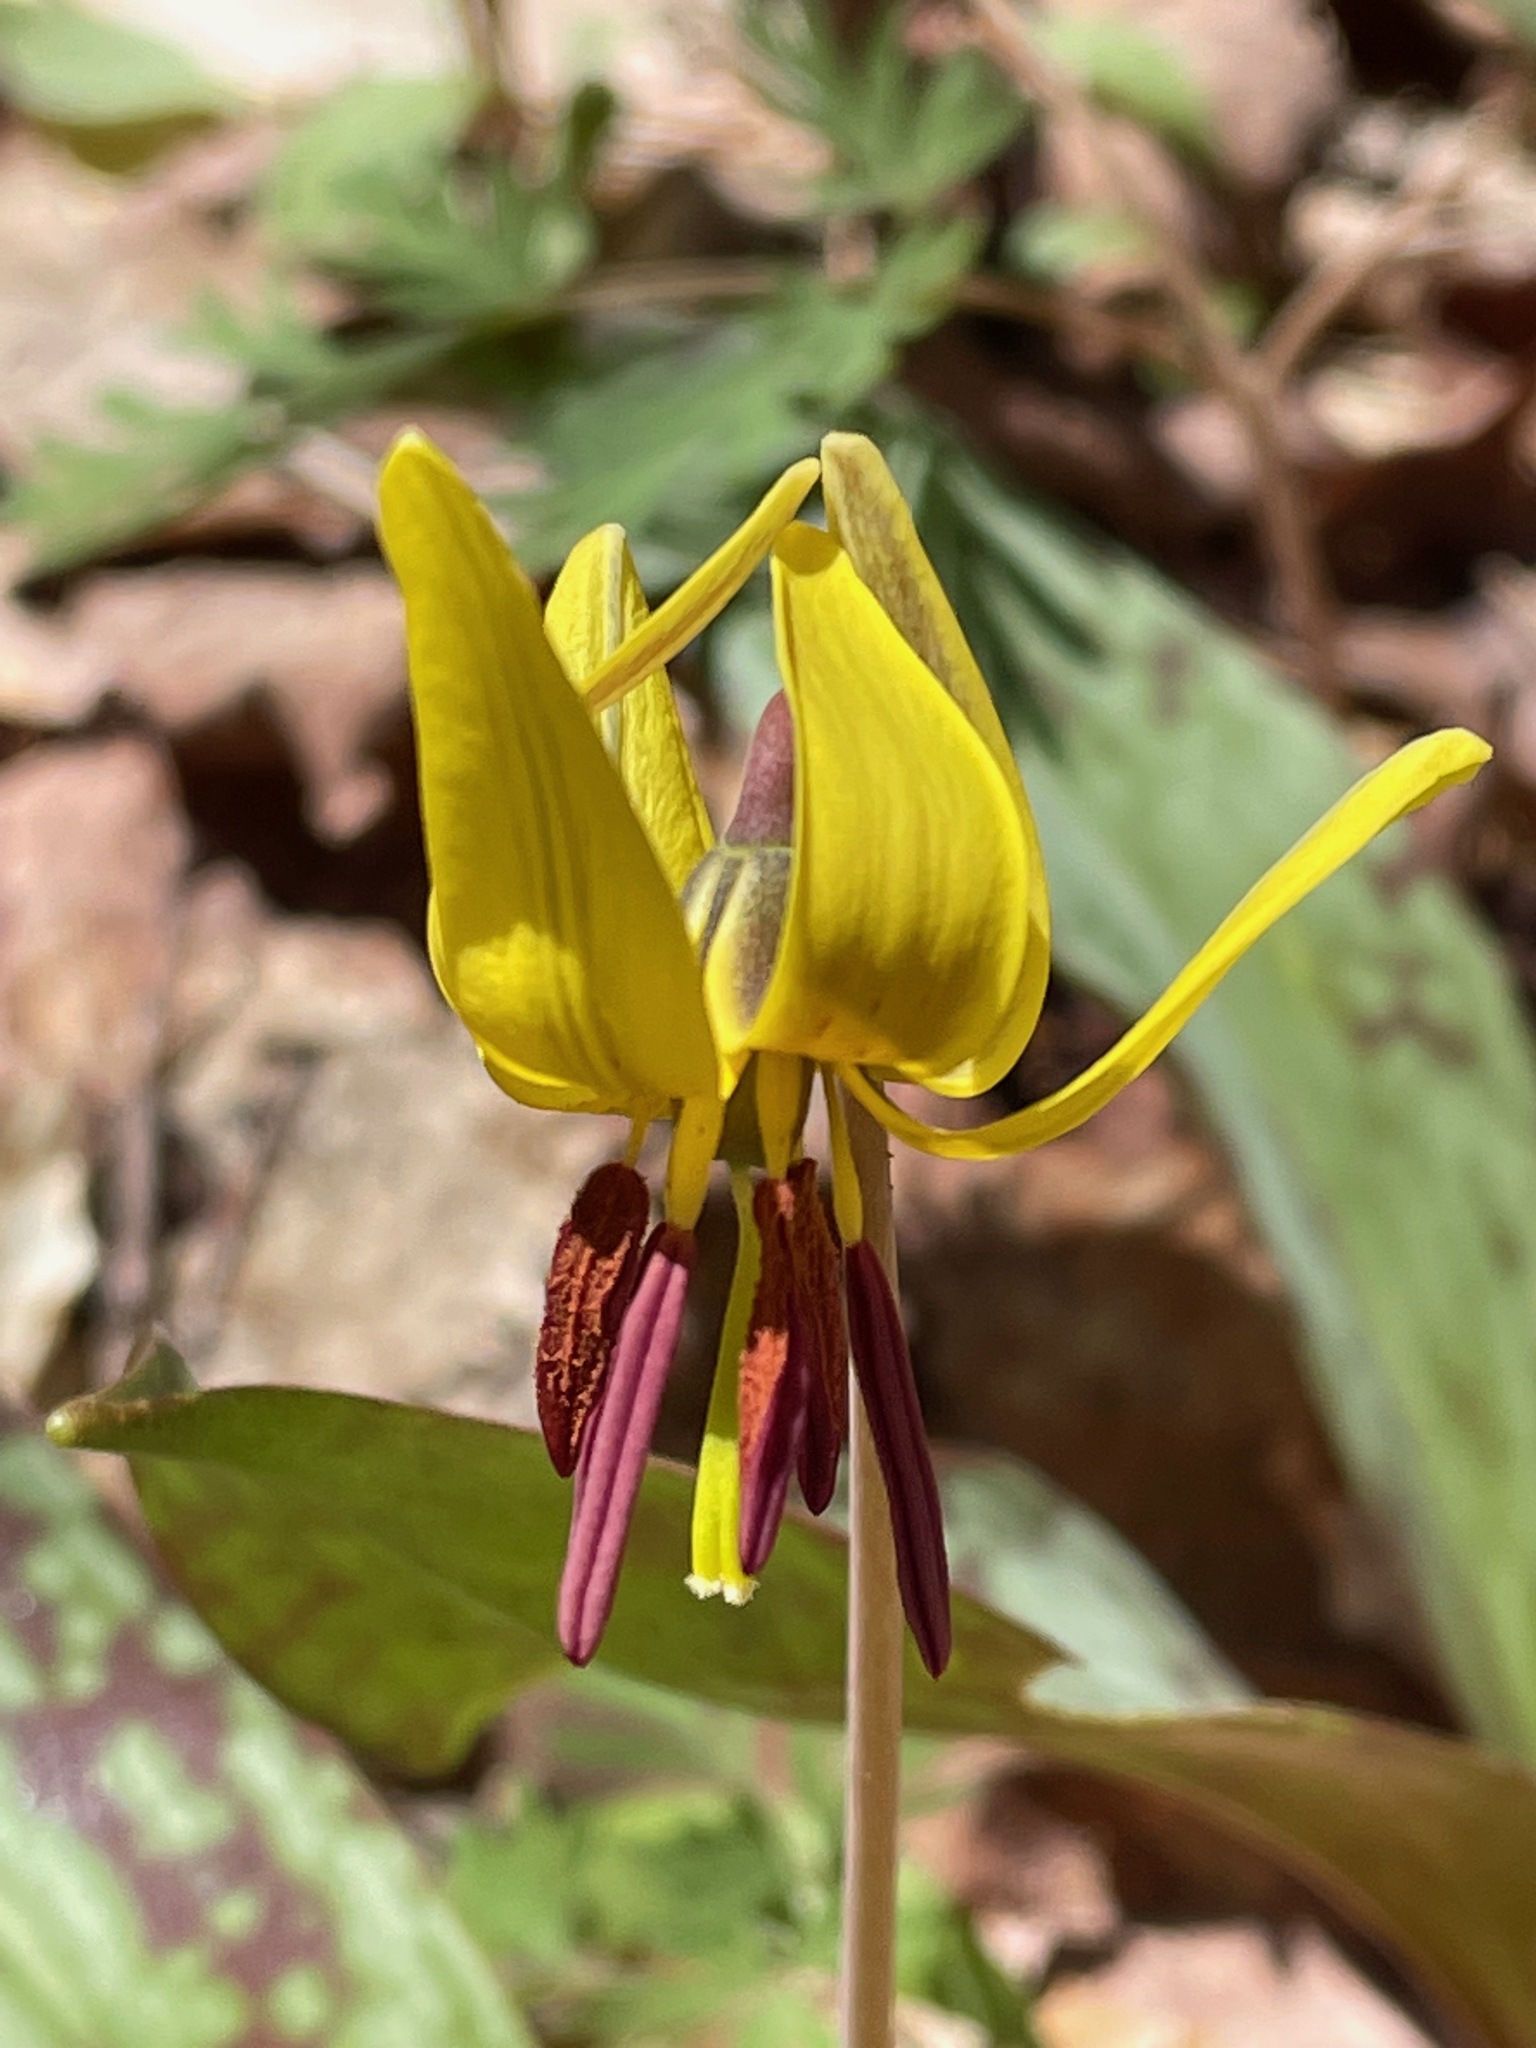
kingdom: Plantae
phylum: Tracheophyta
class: Liliopsida
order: Liliales
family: Liliaceae
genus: Erythronium
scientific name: Erythronium americanum
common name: Yellow adder's-tongue
